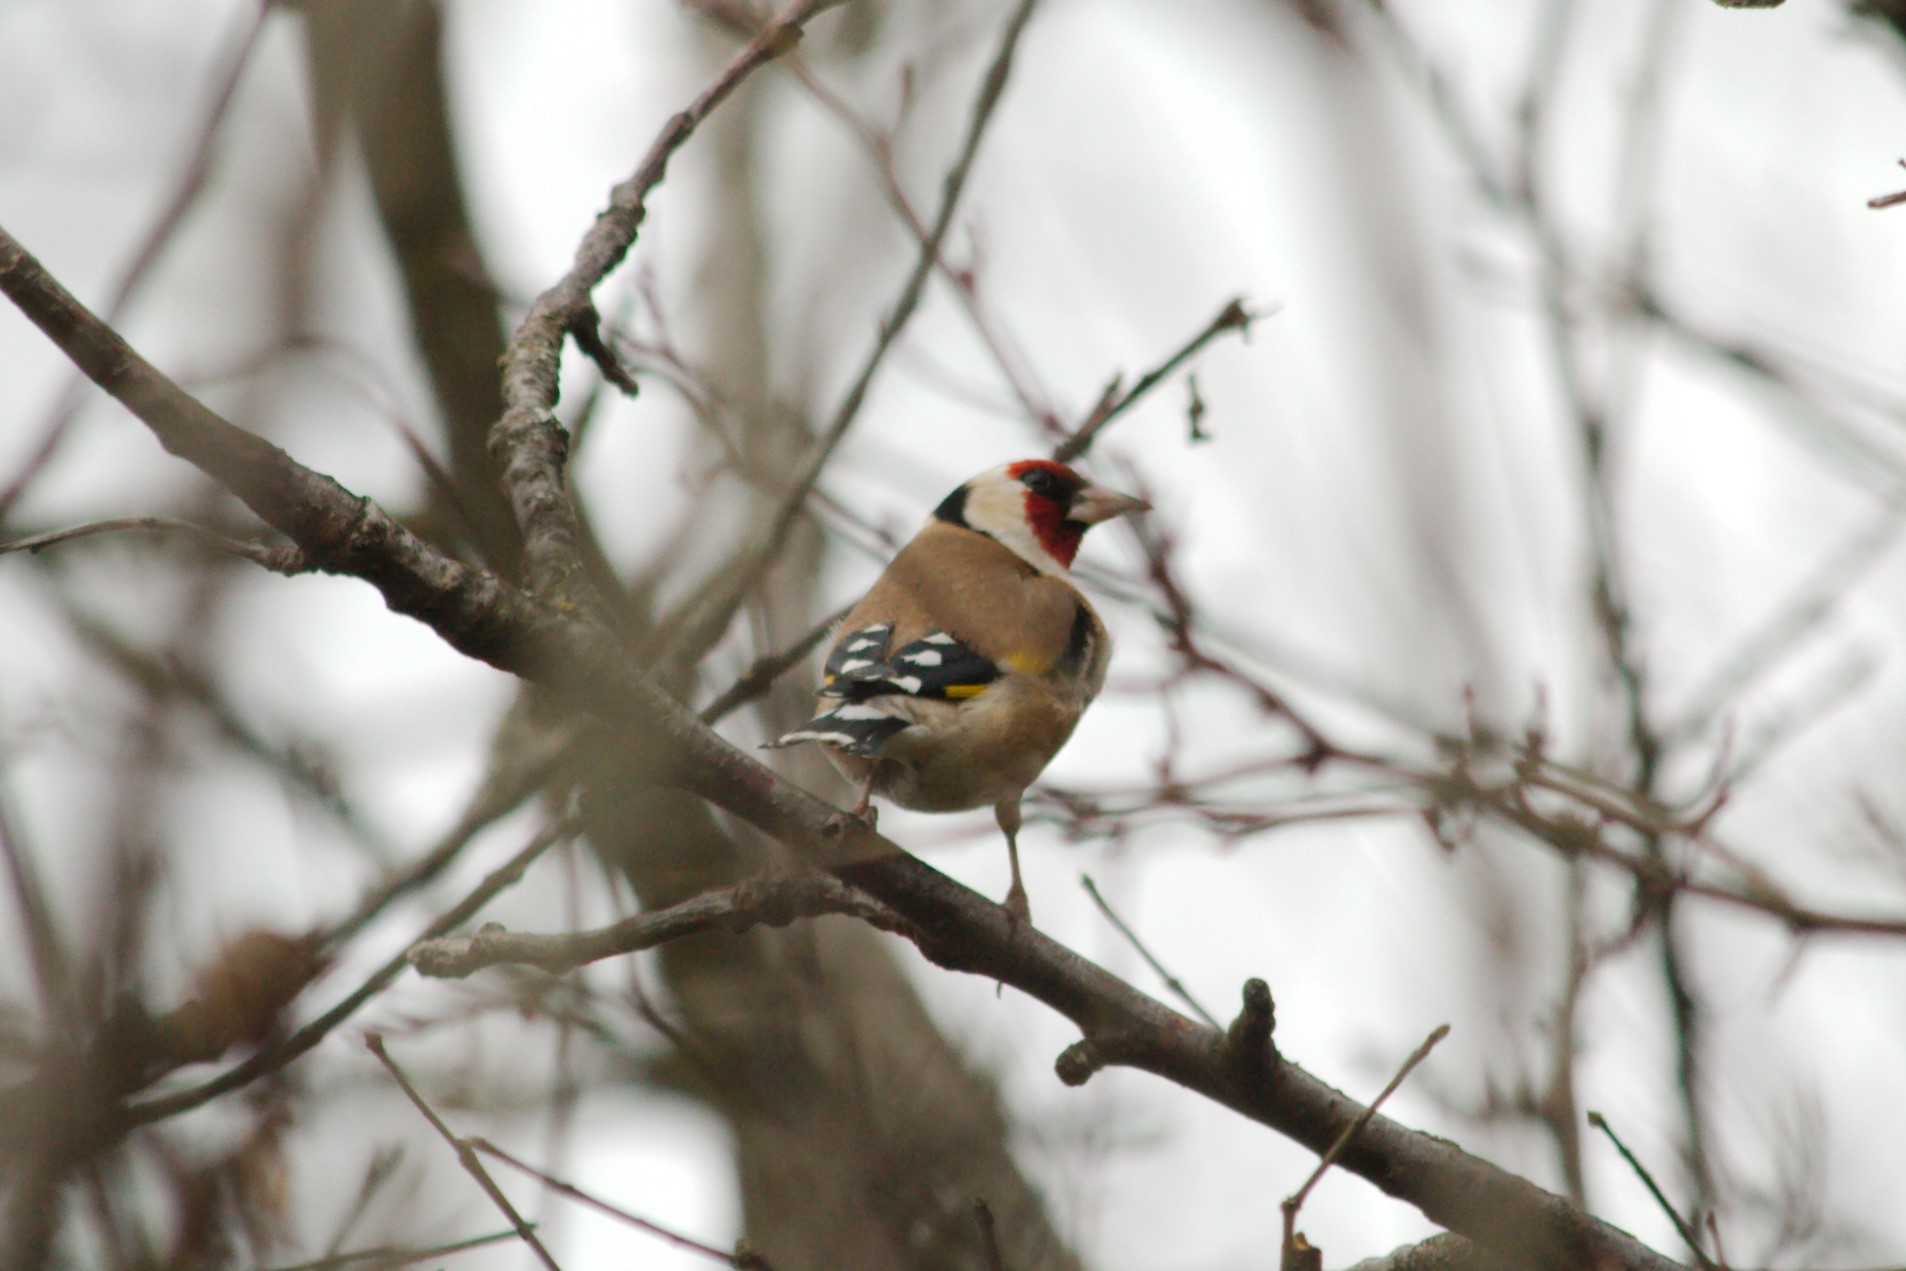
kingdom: Animalia
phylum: Chordata
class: Aves
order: Passeriformes
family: Fringillidae
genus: Carduelis
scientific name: Carduelis carduelis
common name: European goldfinch
